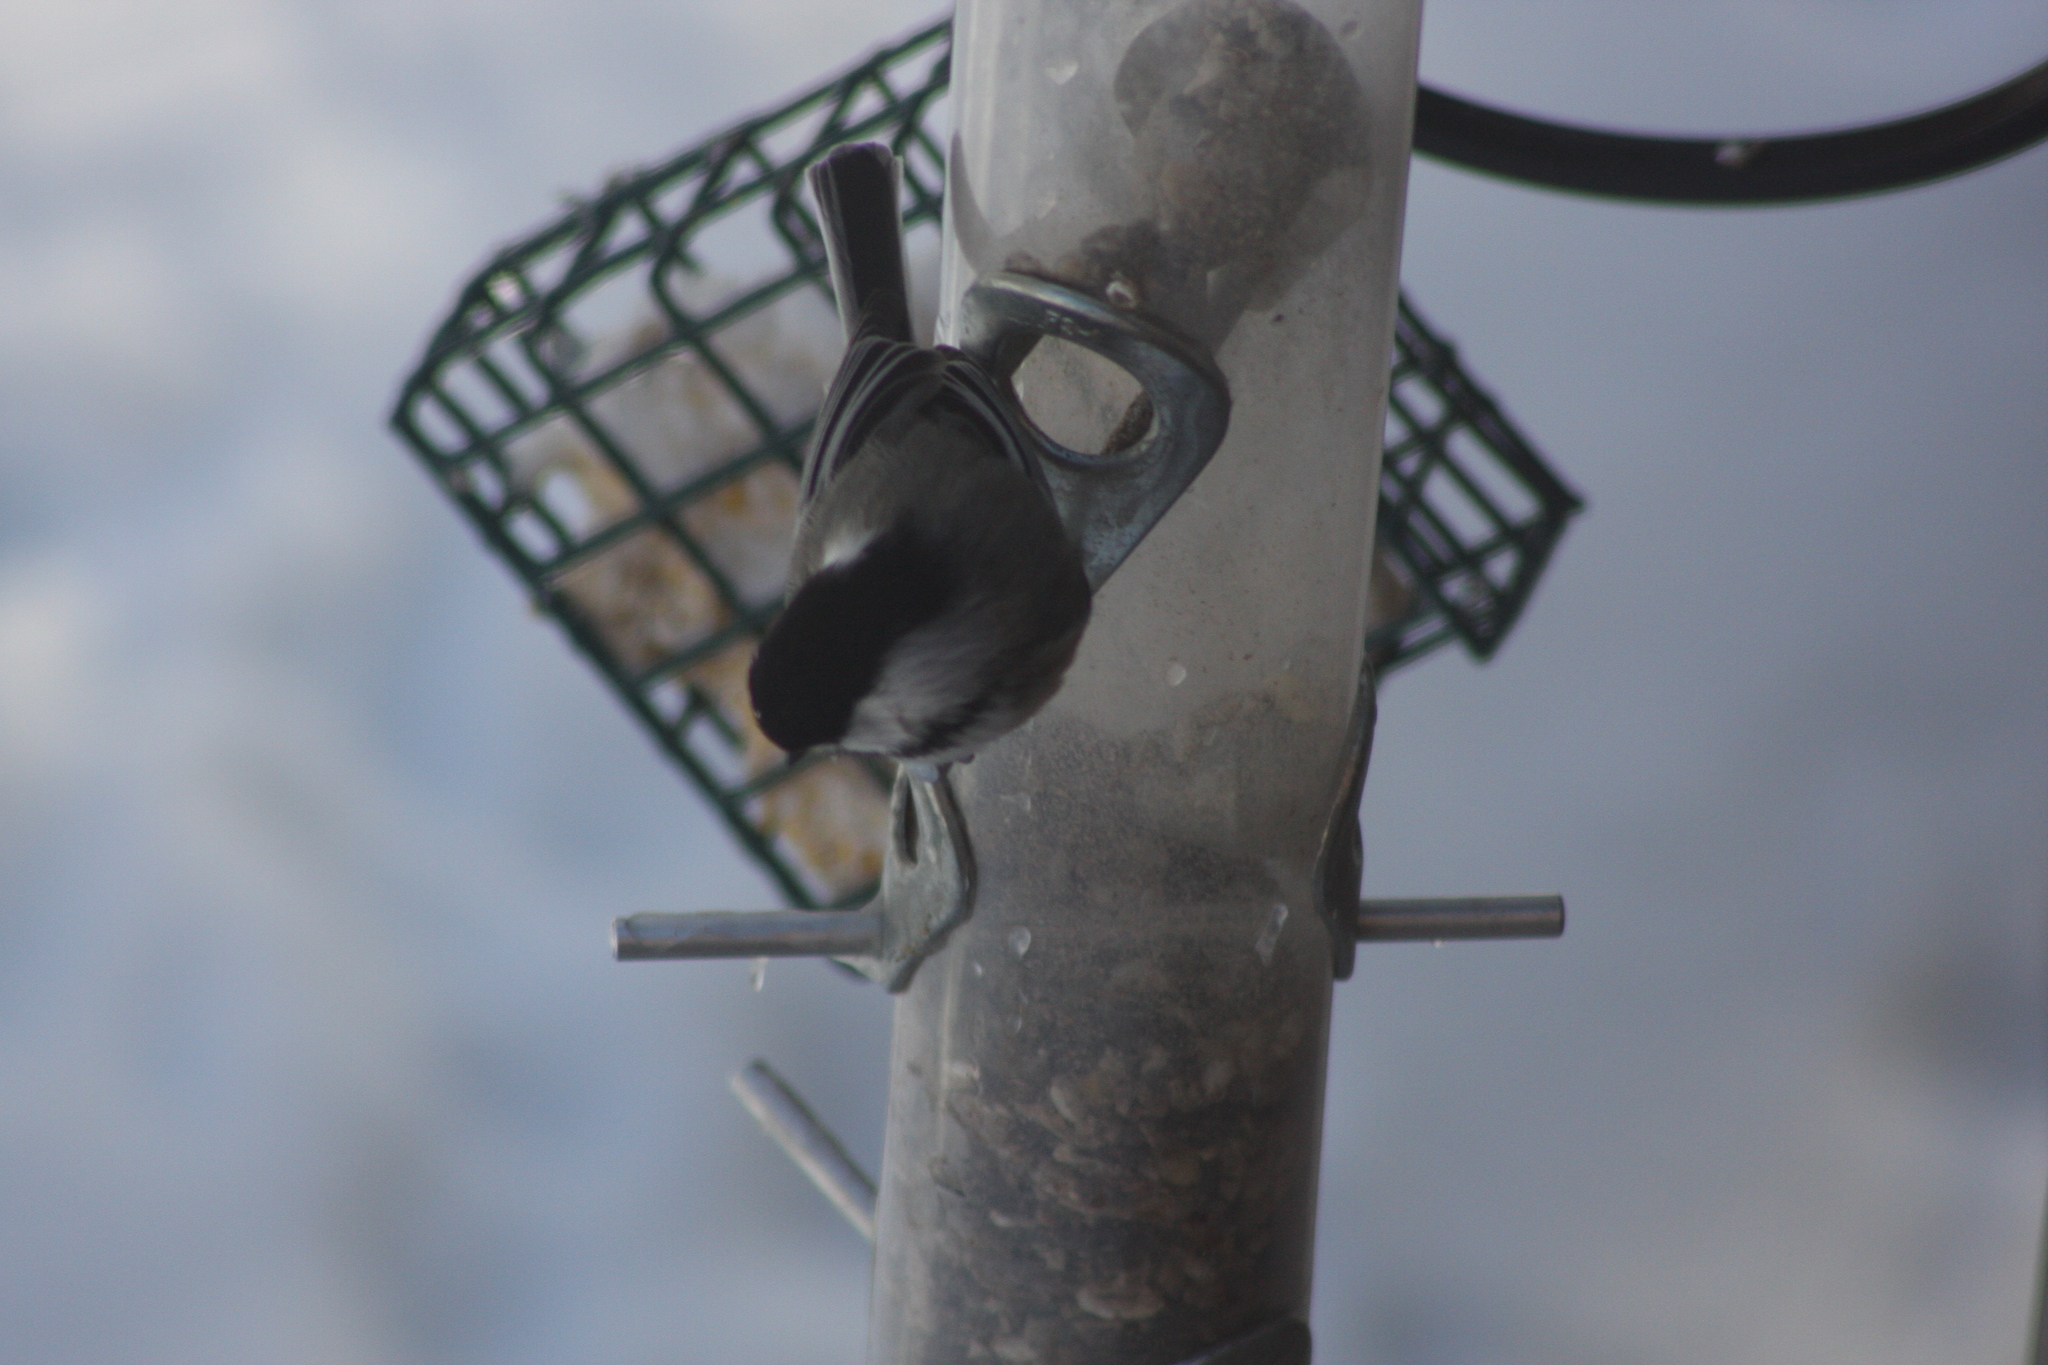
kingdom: Animalia
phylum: Chordata
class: Aves
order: Passeriformes
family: Paridae
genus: Poecile
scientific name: Poecile atricapillus
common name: Black-capped chickadee
